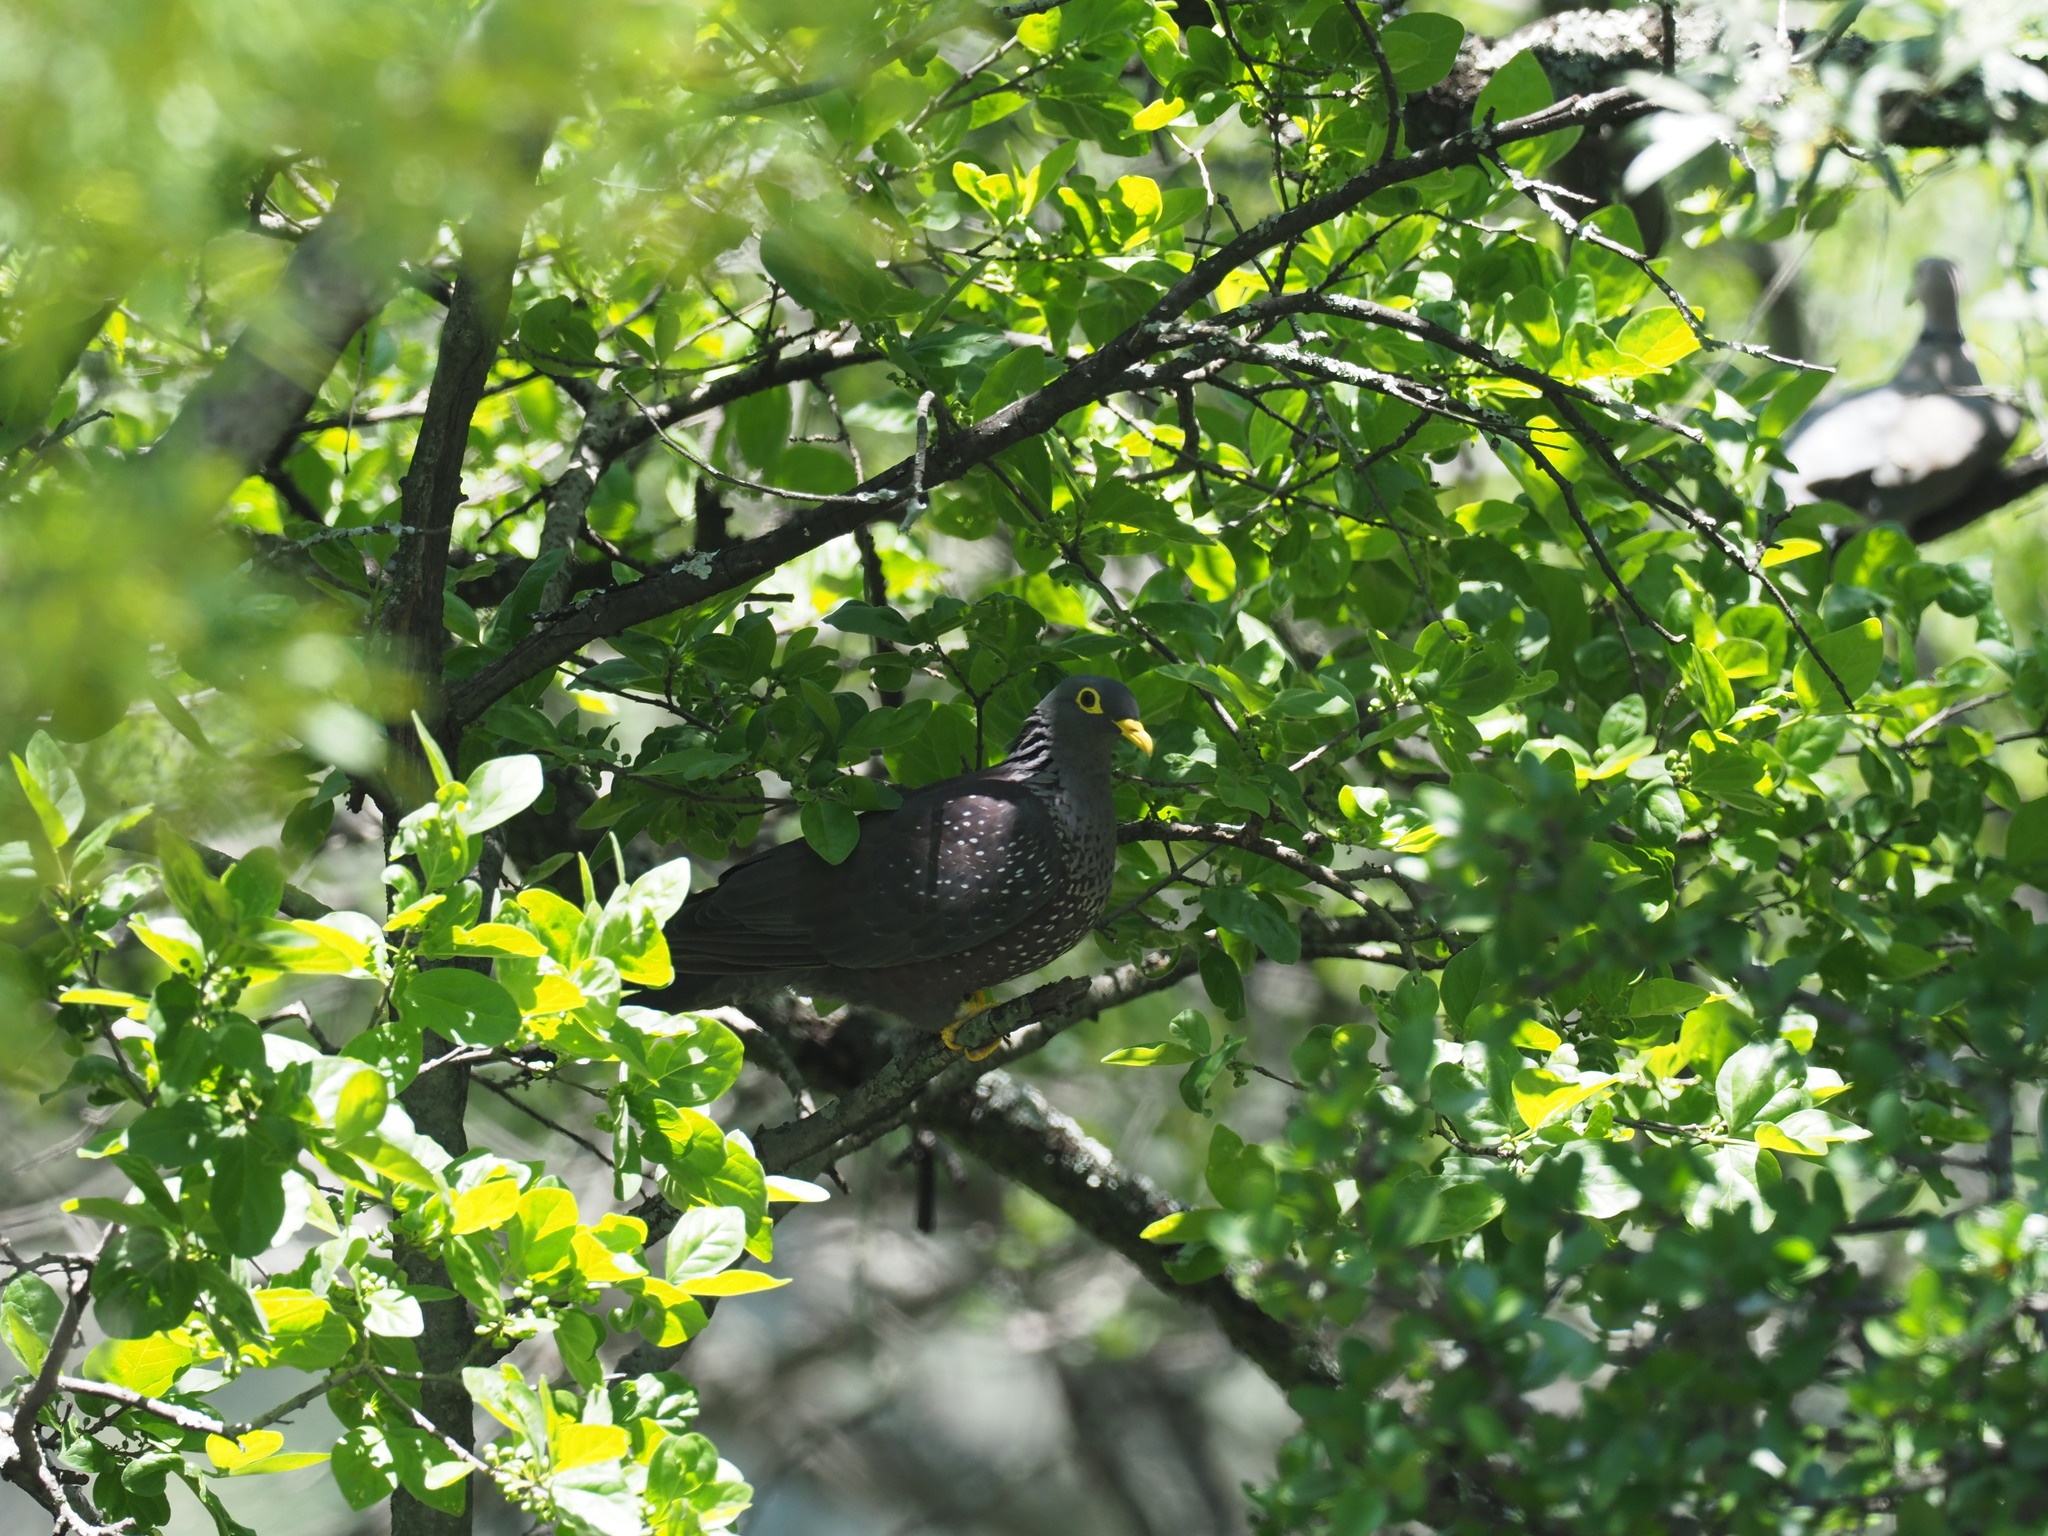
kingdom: Animalia
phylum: Chordata
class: Aves
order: Columbiformes
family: Columbidae
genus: Columba
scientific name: Columba arquatrix
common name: African olive pigeon
